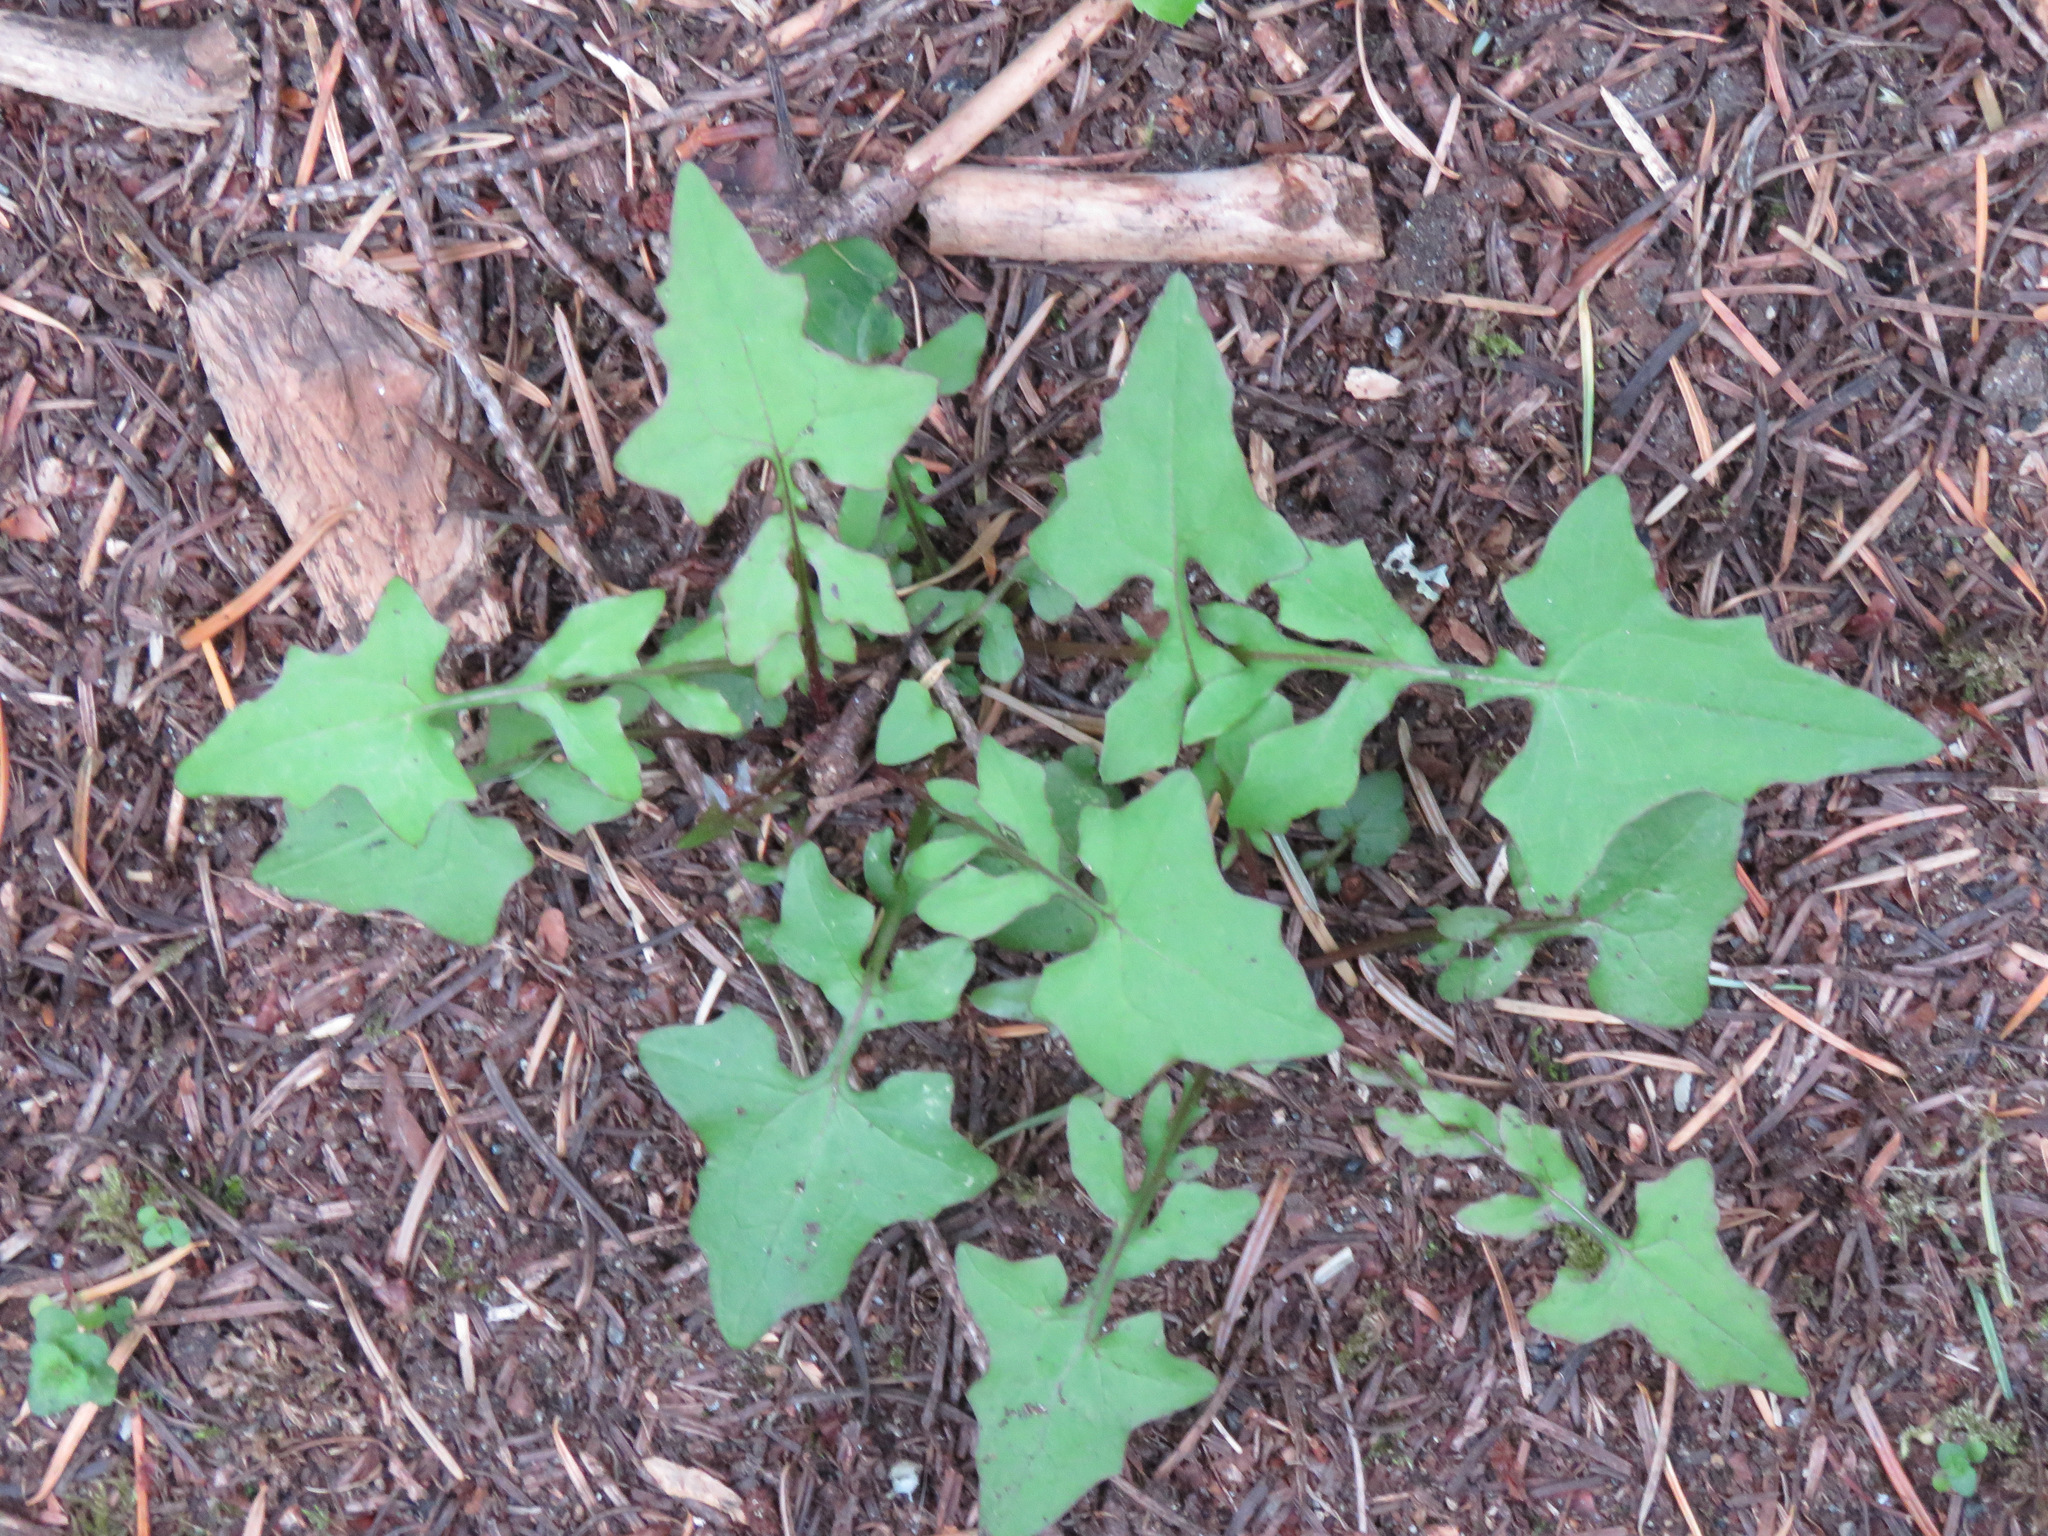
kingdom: Plantae
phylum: Tracheophyta
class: Magnoliopsida
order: Asterales
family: Asteraceae
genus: Mycelis
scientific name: Mycelis muralis
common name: Wall lettuce
